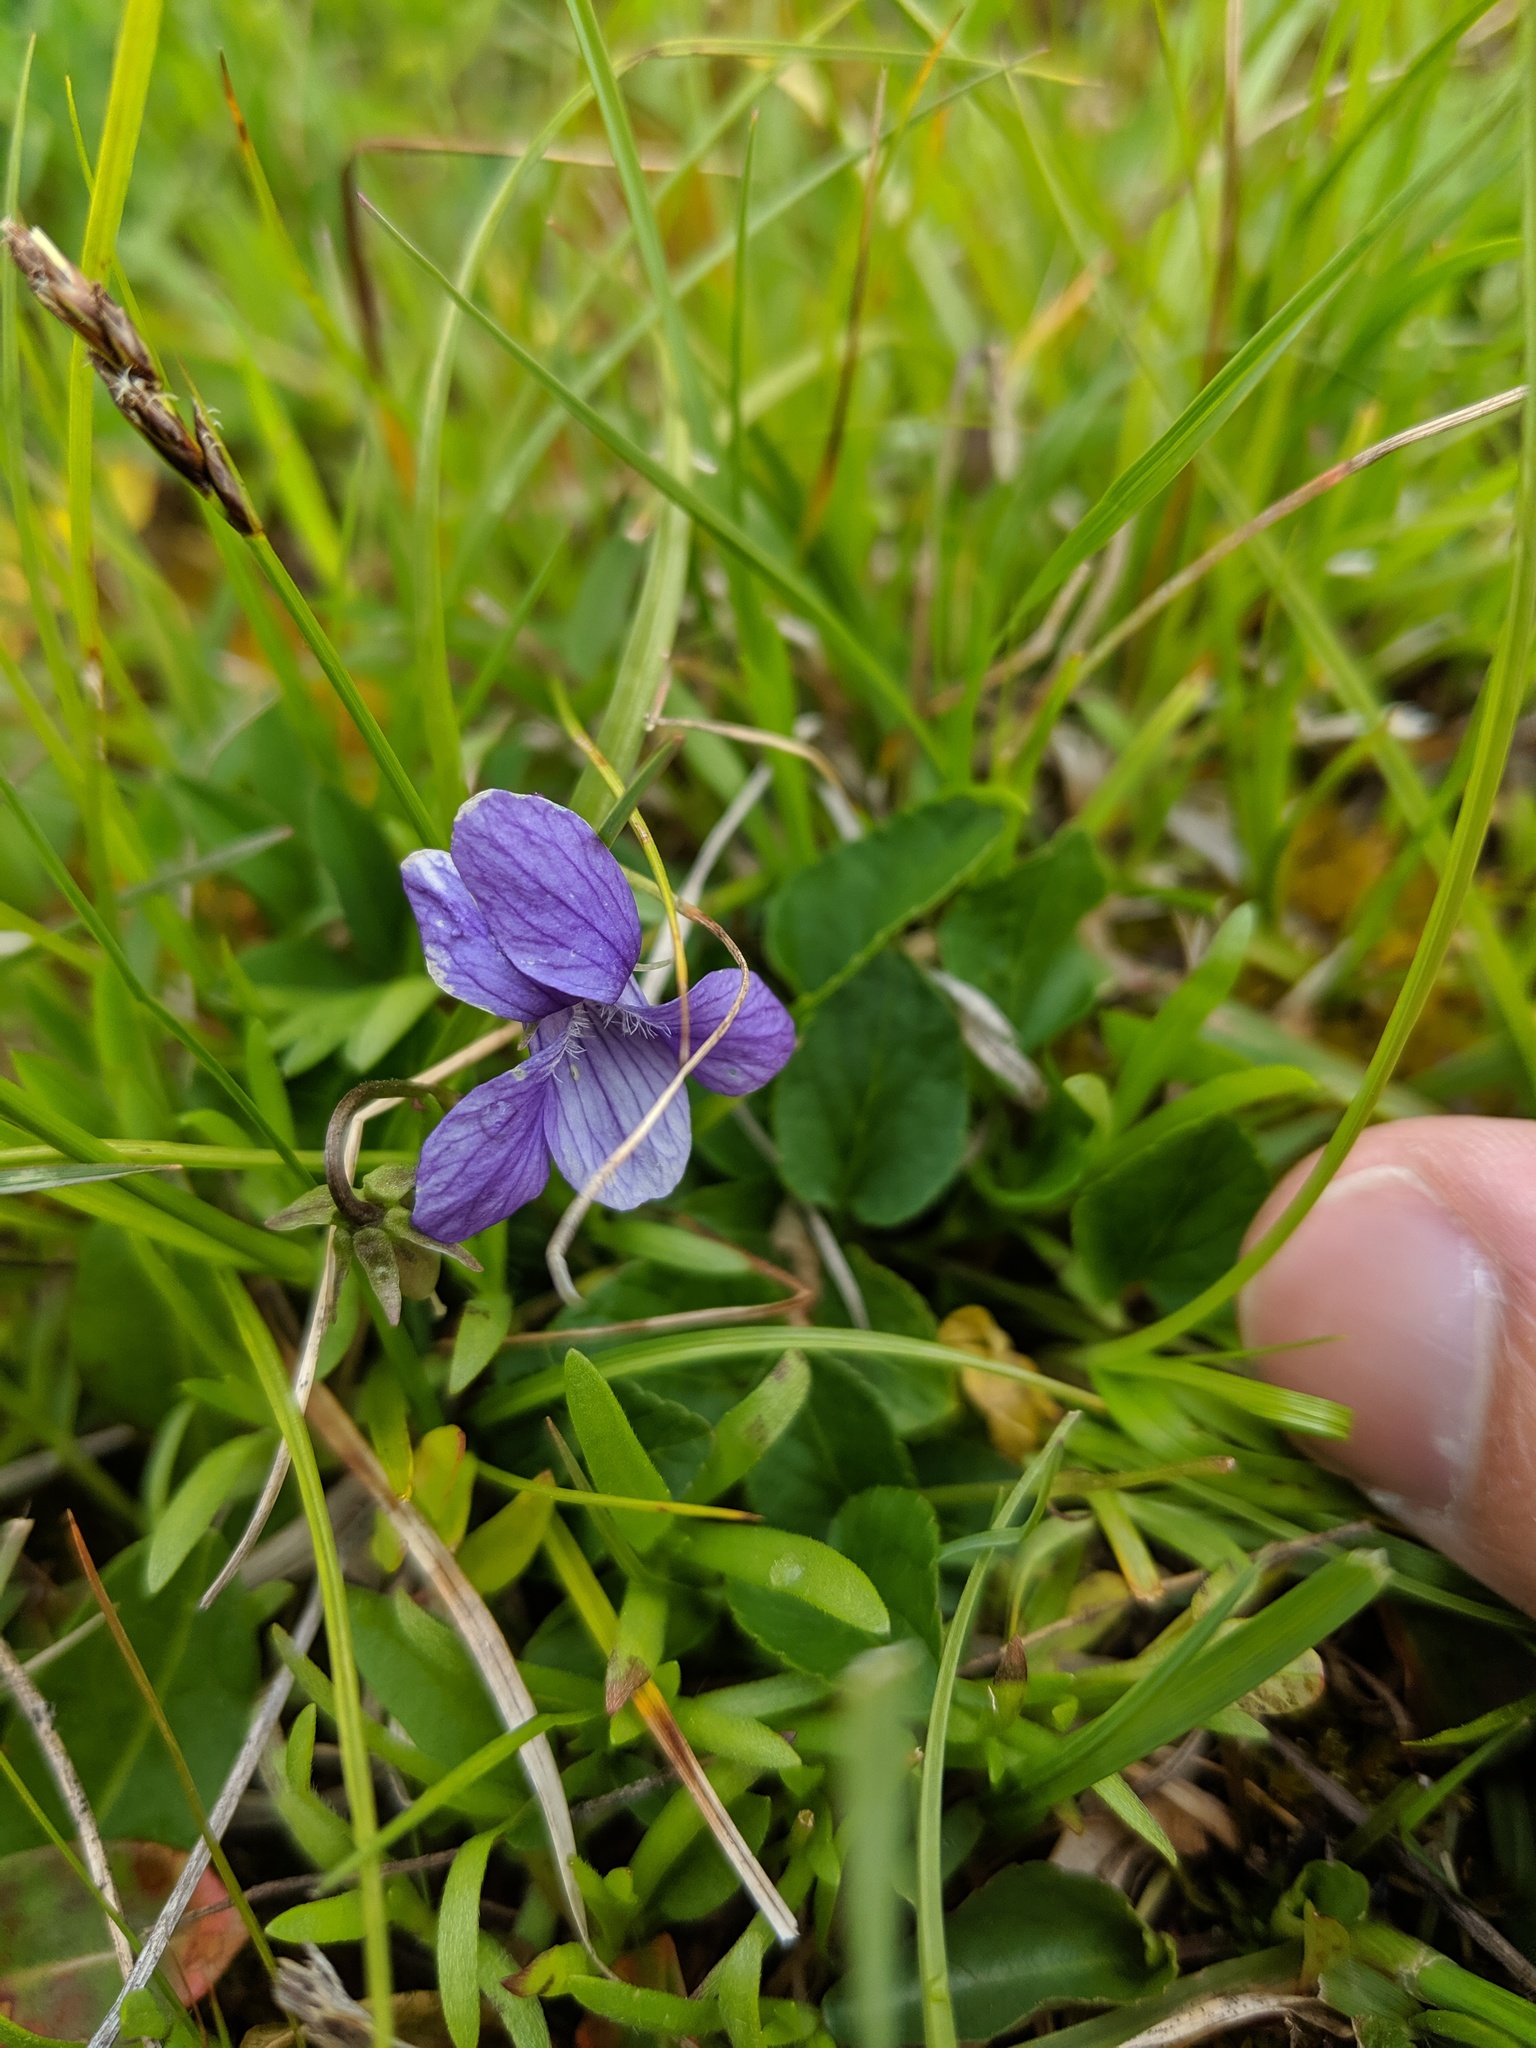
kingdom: Plantae
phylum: Tracheophyta
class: Magnoliopsida
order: Malpighiales
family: Violaceae
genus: Viola
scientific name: Viola adunca
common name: Sand violet
